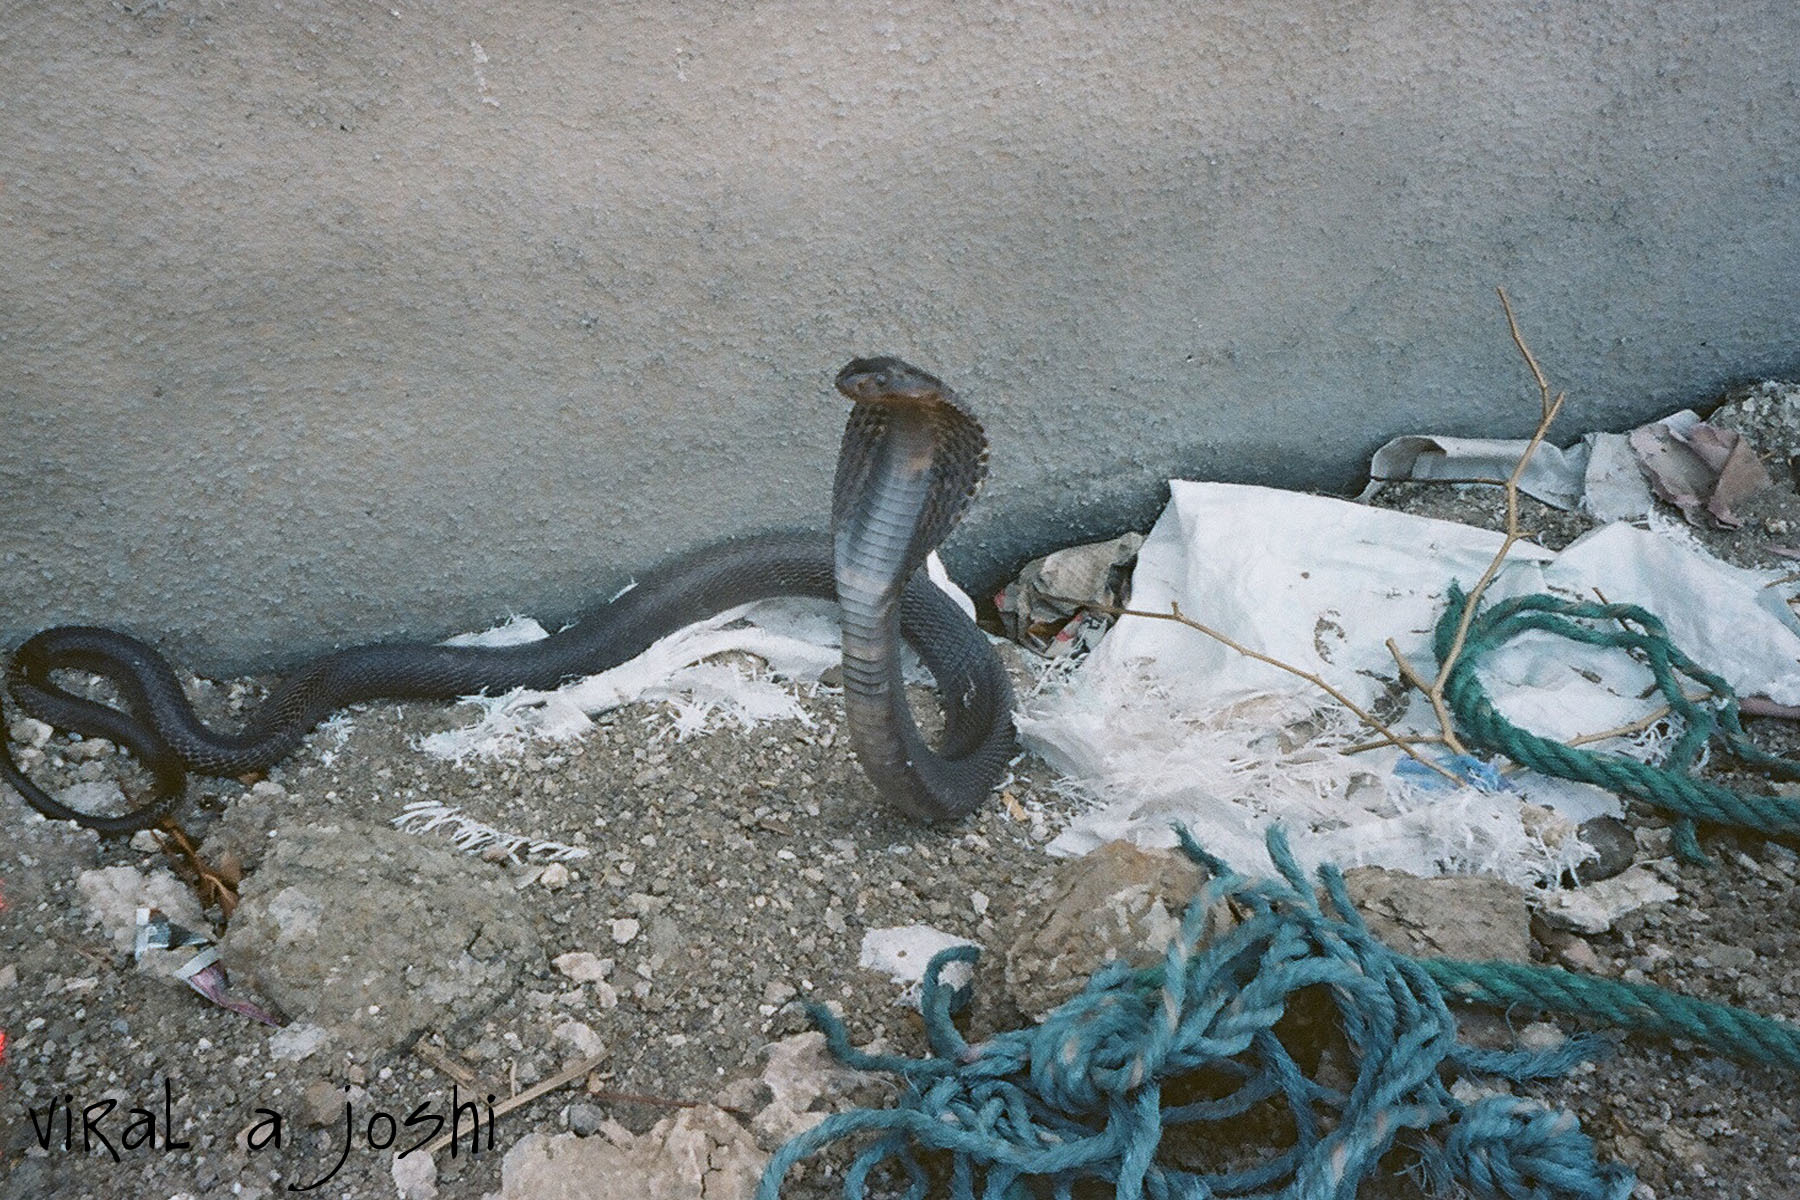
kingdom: Animalia
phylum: Chordata
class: Squamata
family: Elapidae
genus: Naja
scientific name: Naja naja
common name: Indian cobra
